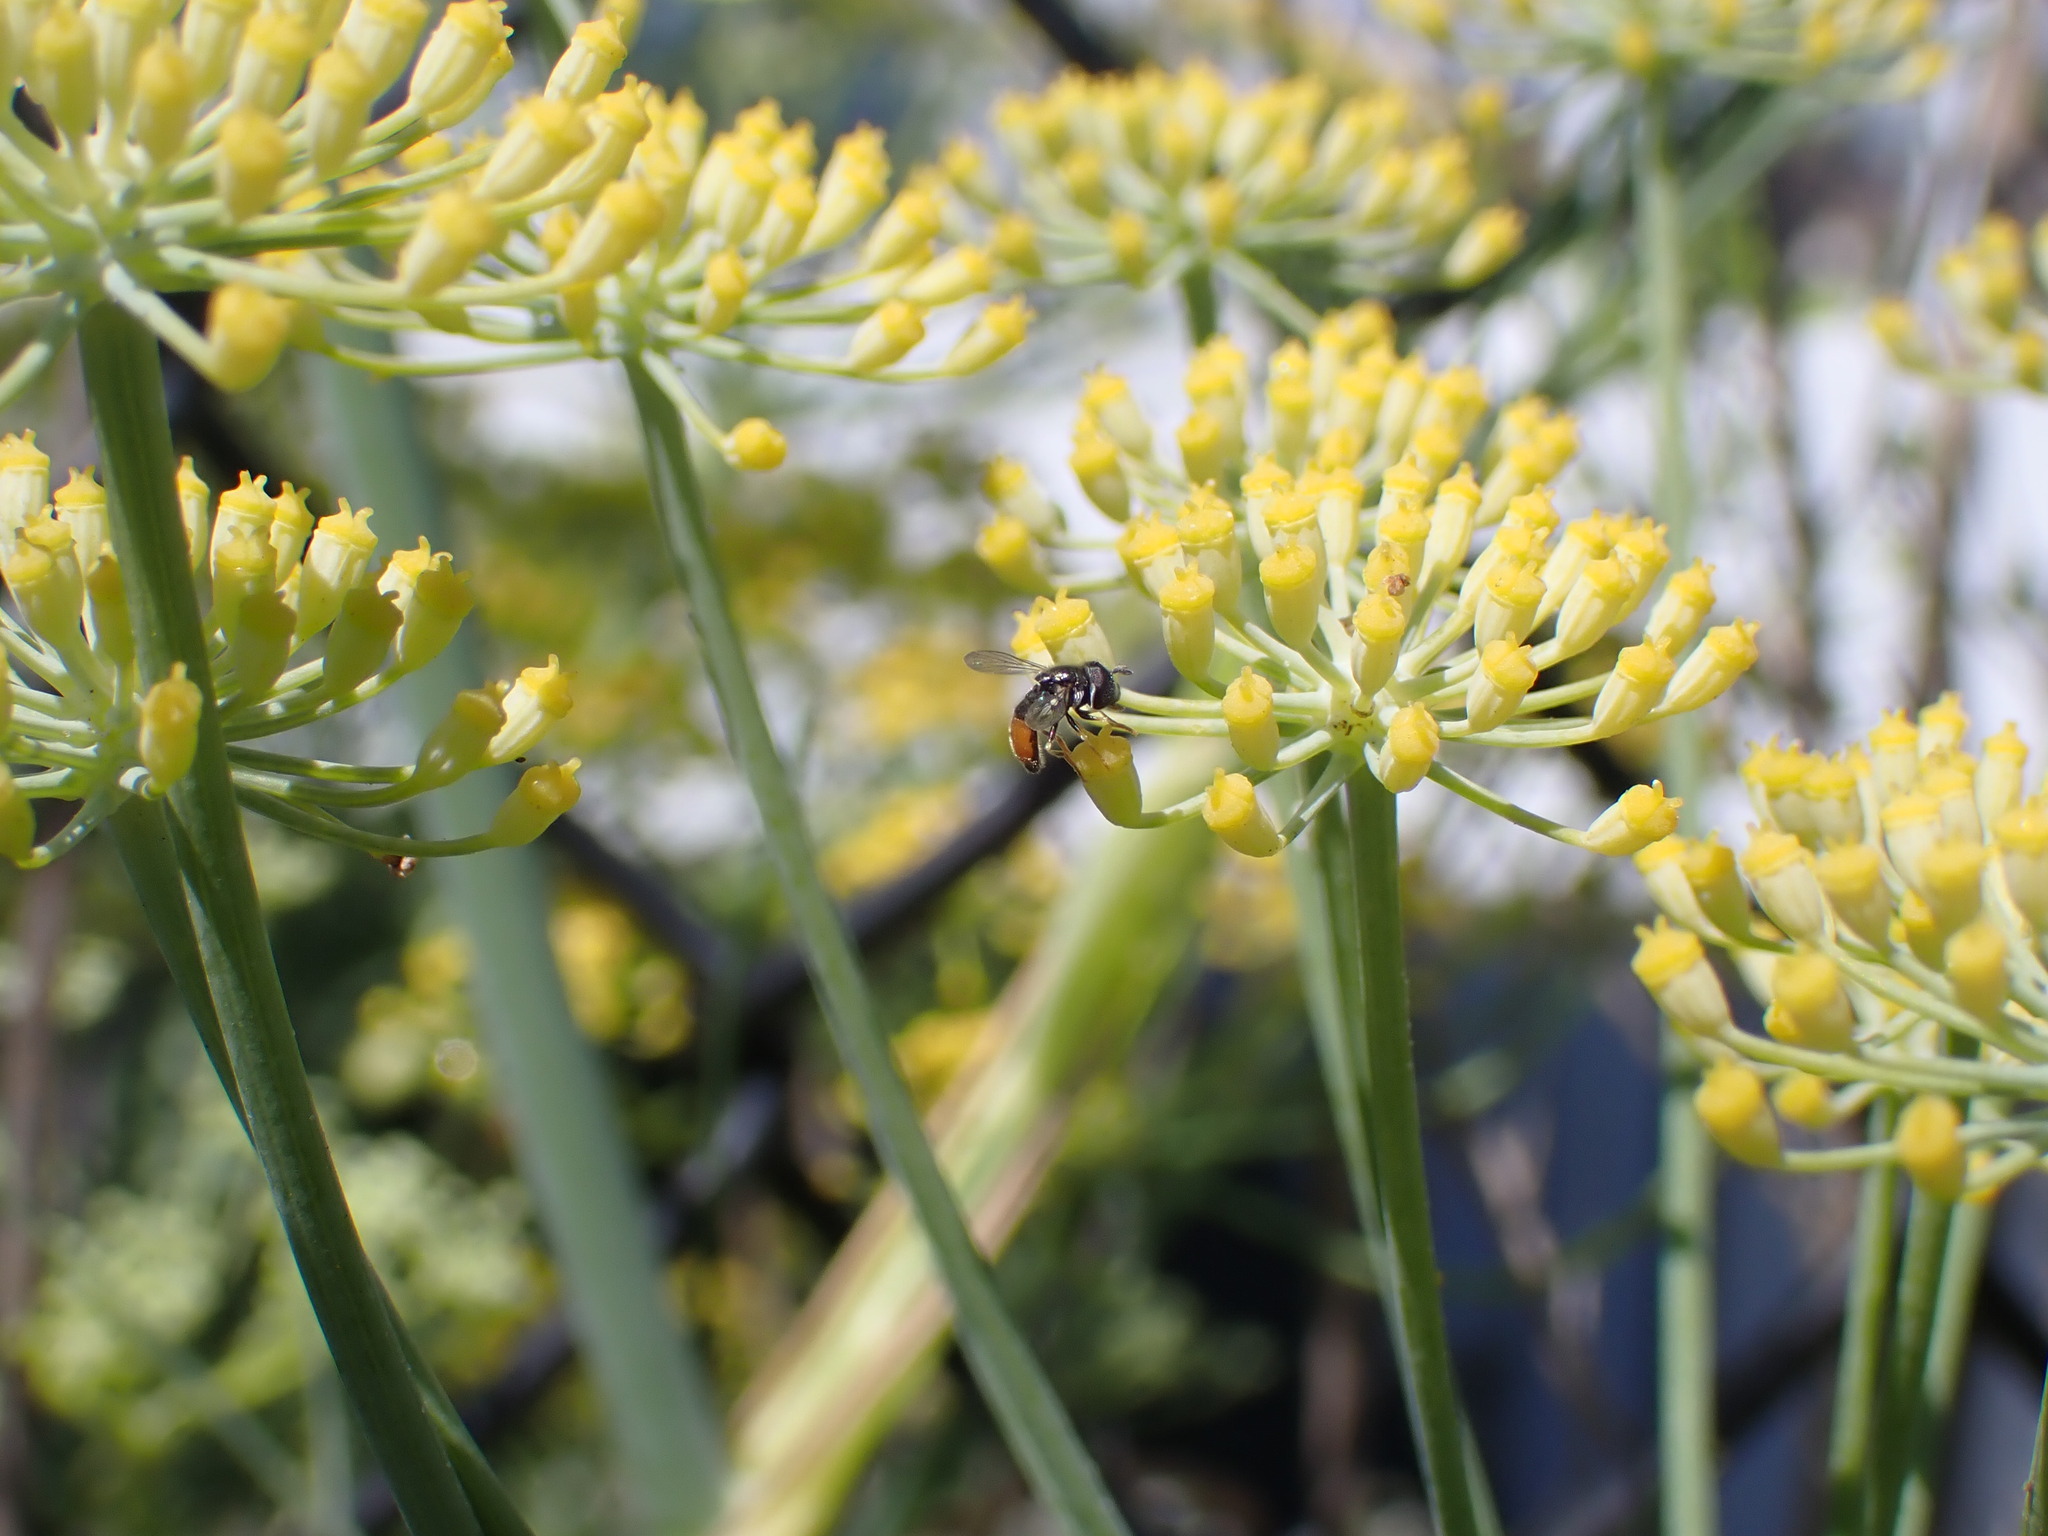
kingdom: Animalia
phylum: Arthropoda
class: Insecta
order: Diptera
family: Syrphidae
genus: Paragus
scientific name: Paragus haemorrhous
